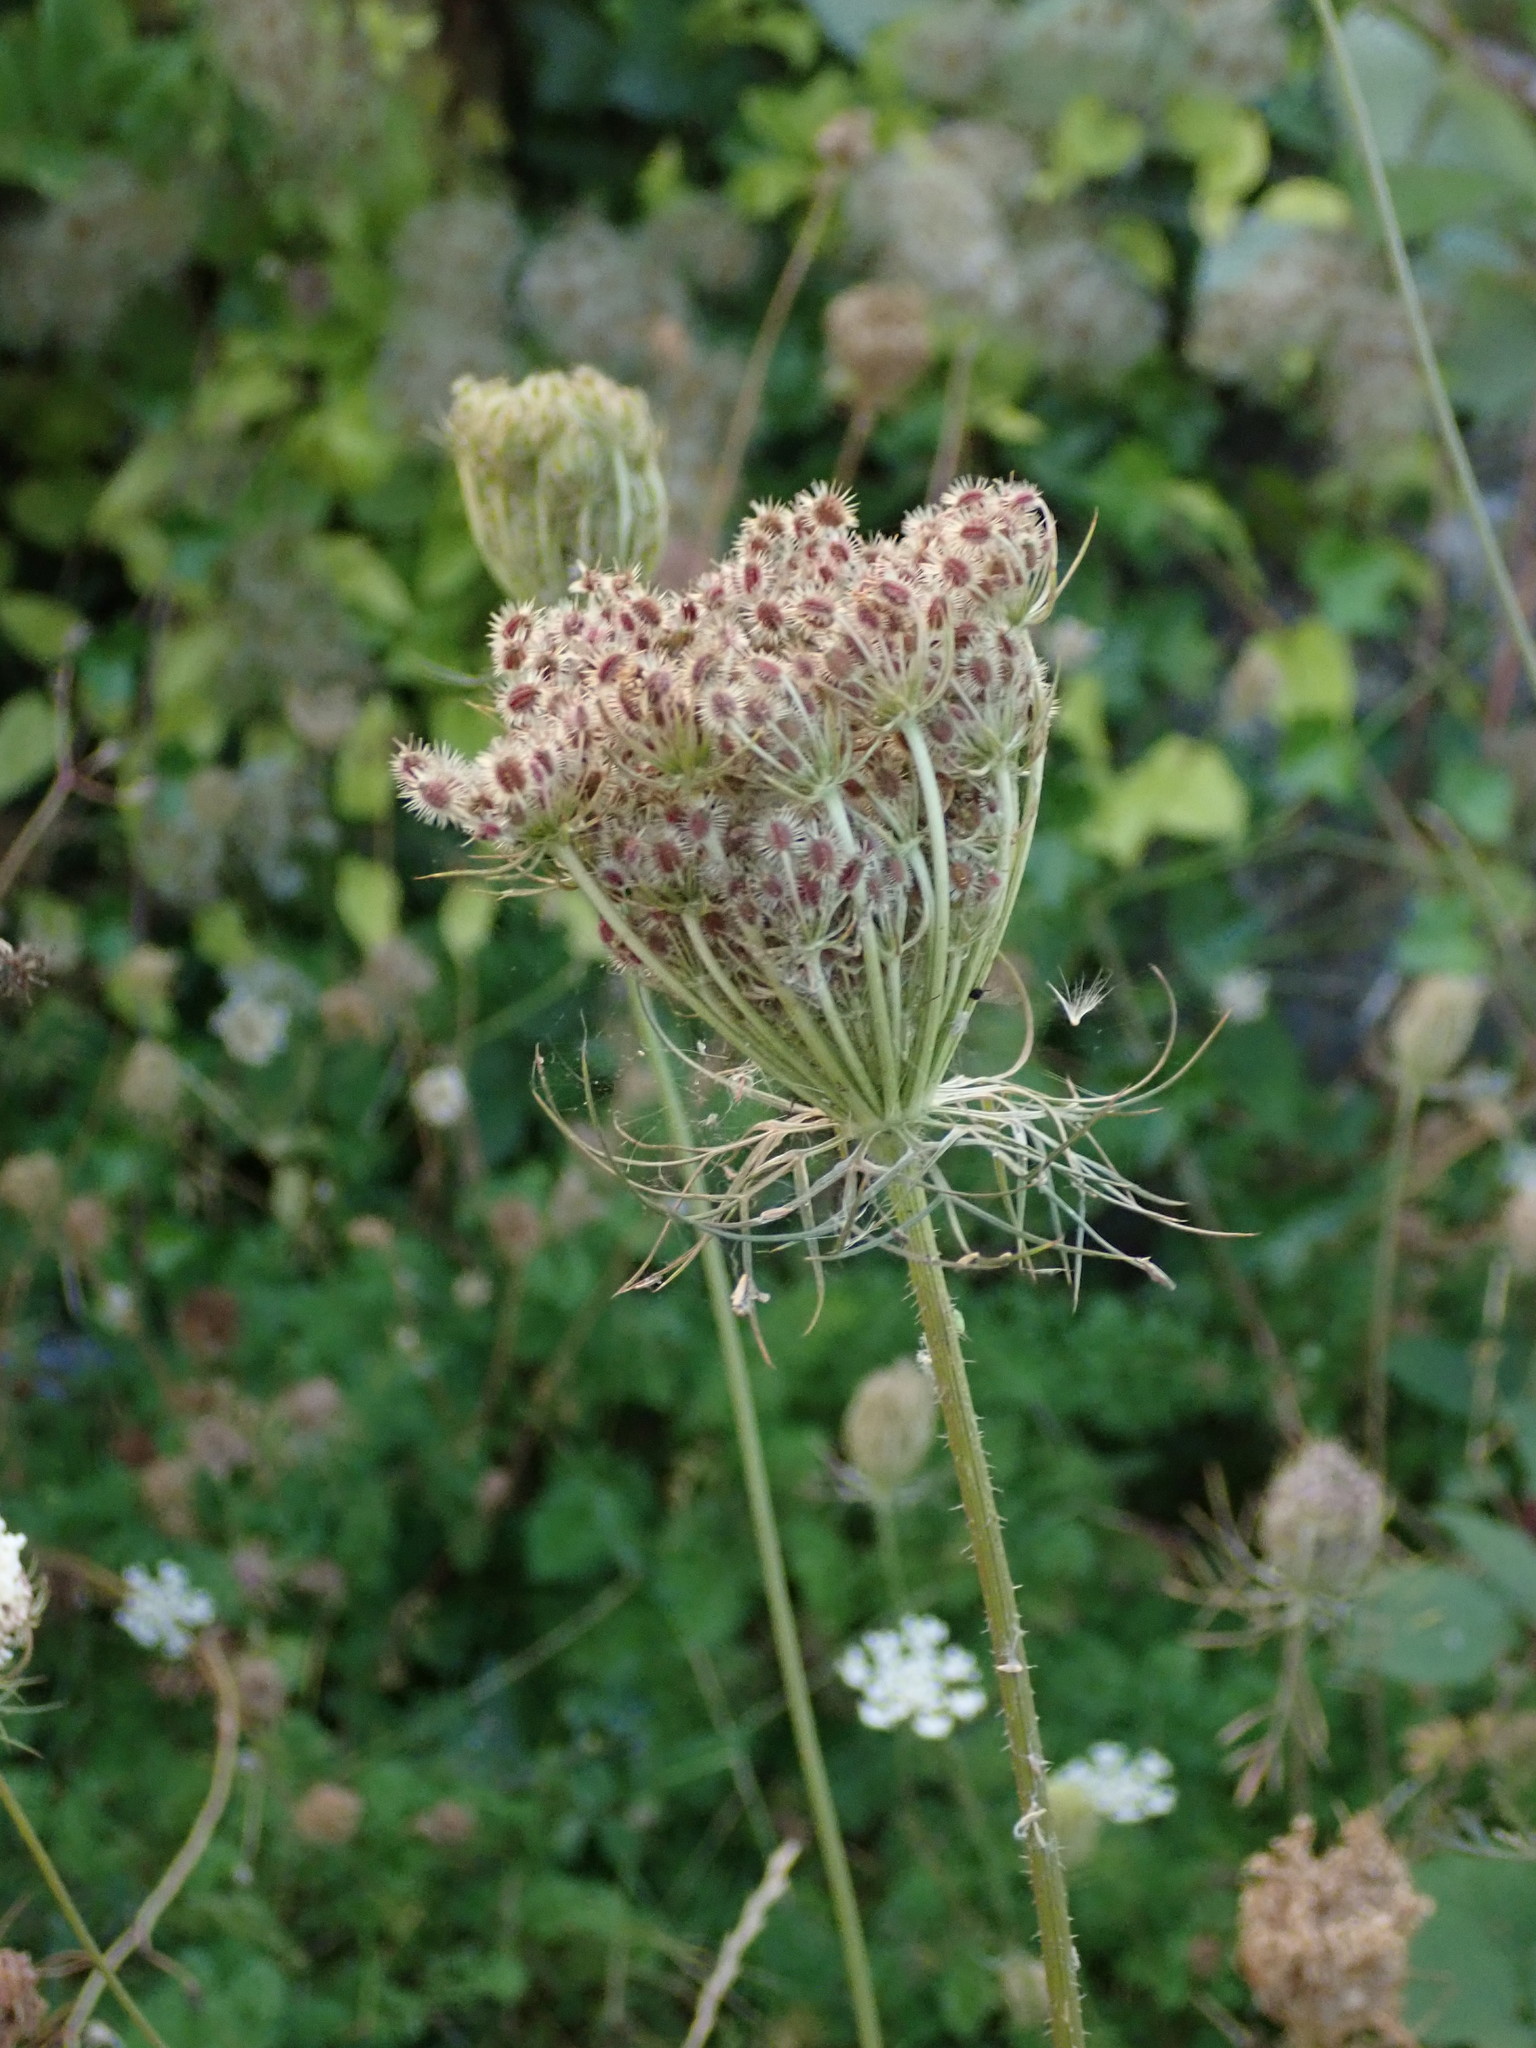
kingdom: Plantae
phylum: Tracheophyta
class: Magnoliopsida
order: Apiales
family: Apiaceae
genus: Daucus
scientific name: Daucus carota
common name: Wild carrot
